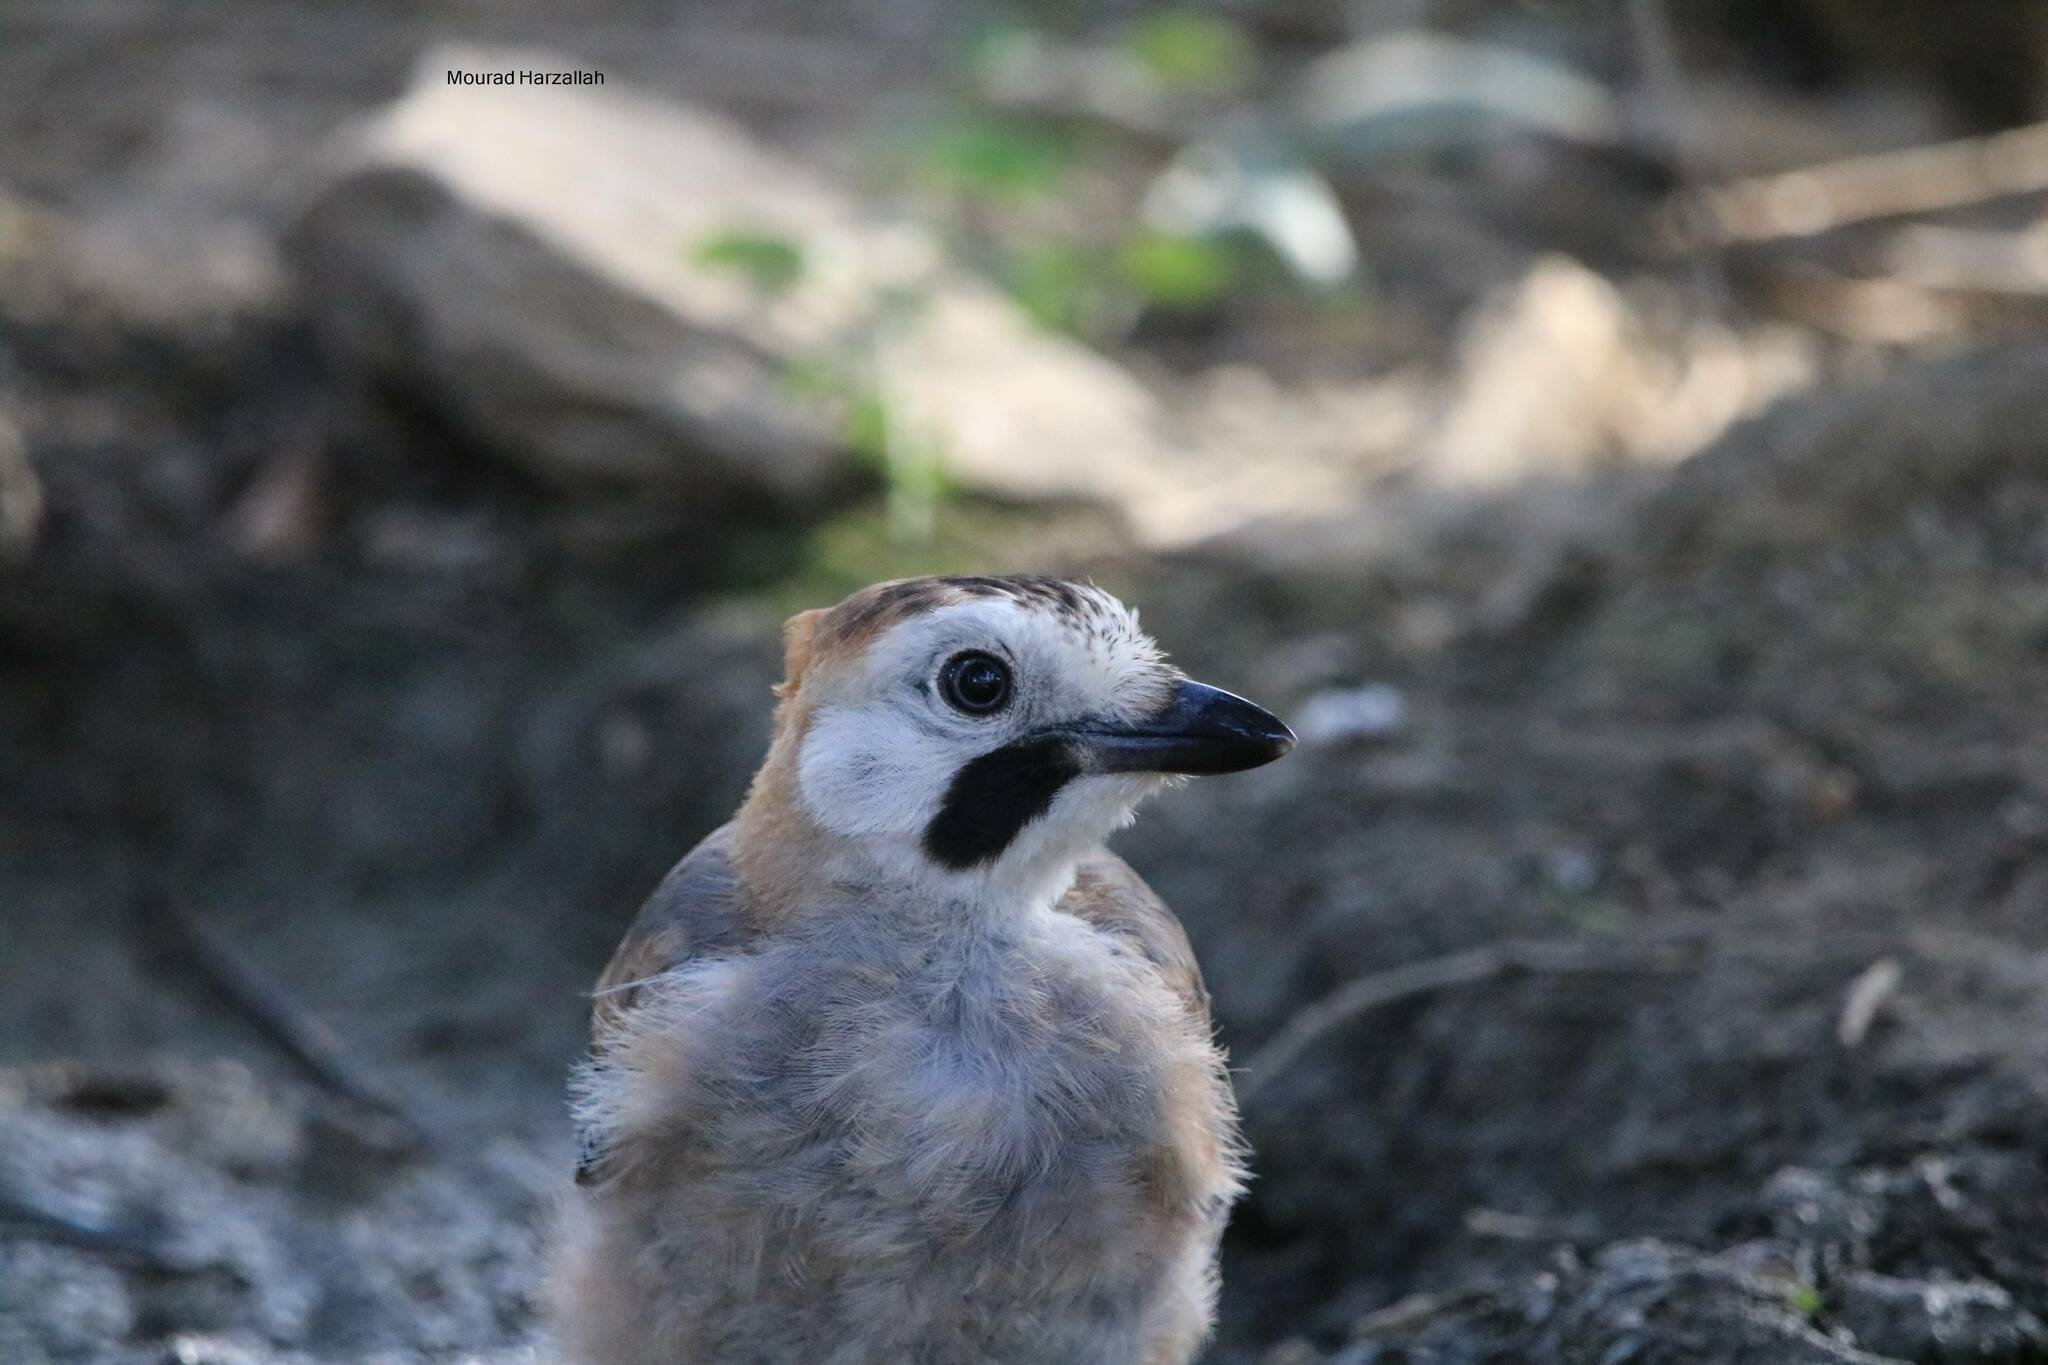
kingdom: Animalia
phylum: Chordata
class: Aves
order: Passeriformes
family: Corvidae
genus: Garrulus
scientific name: Garrulus glandarius
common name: Eurasian jay
